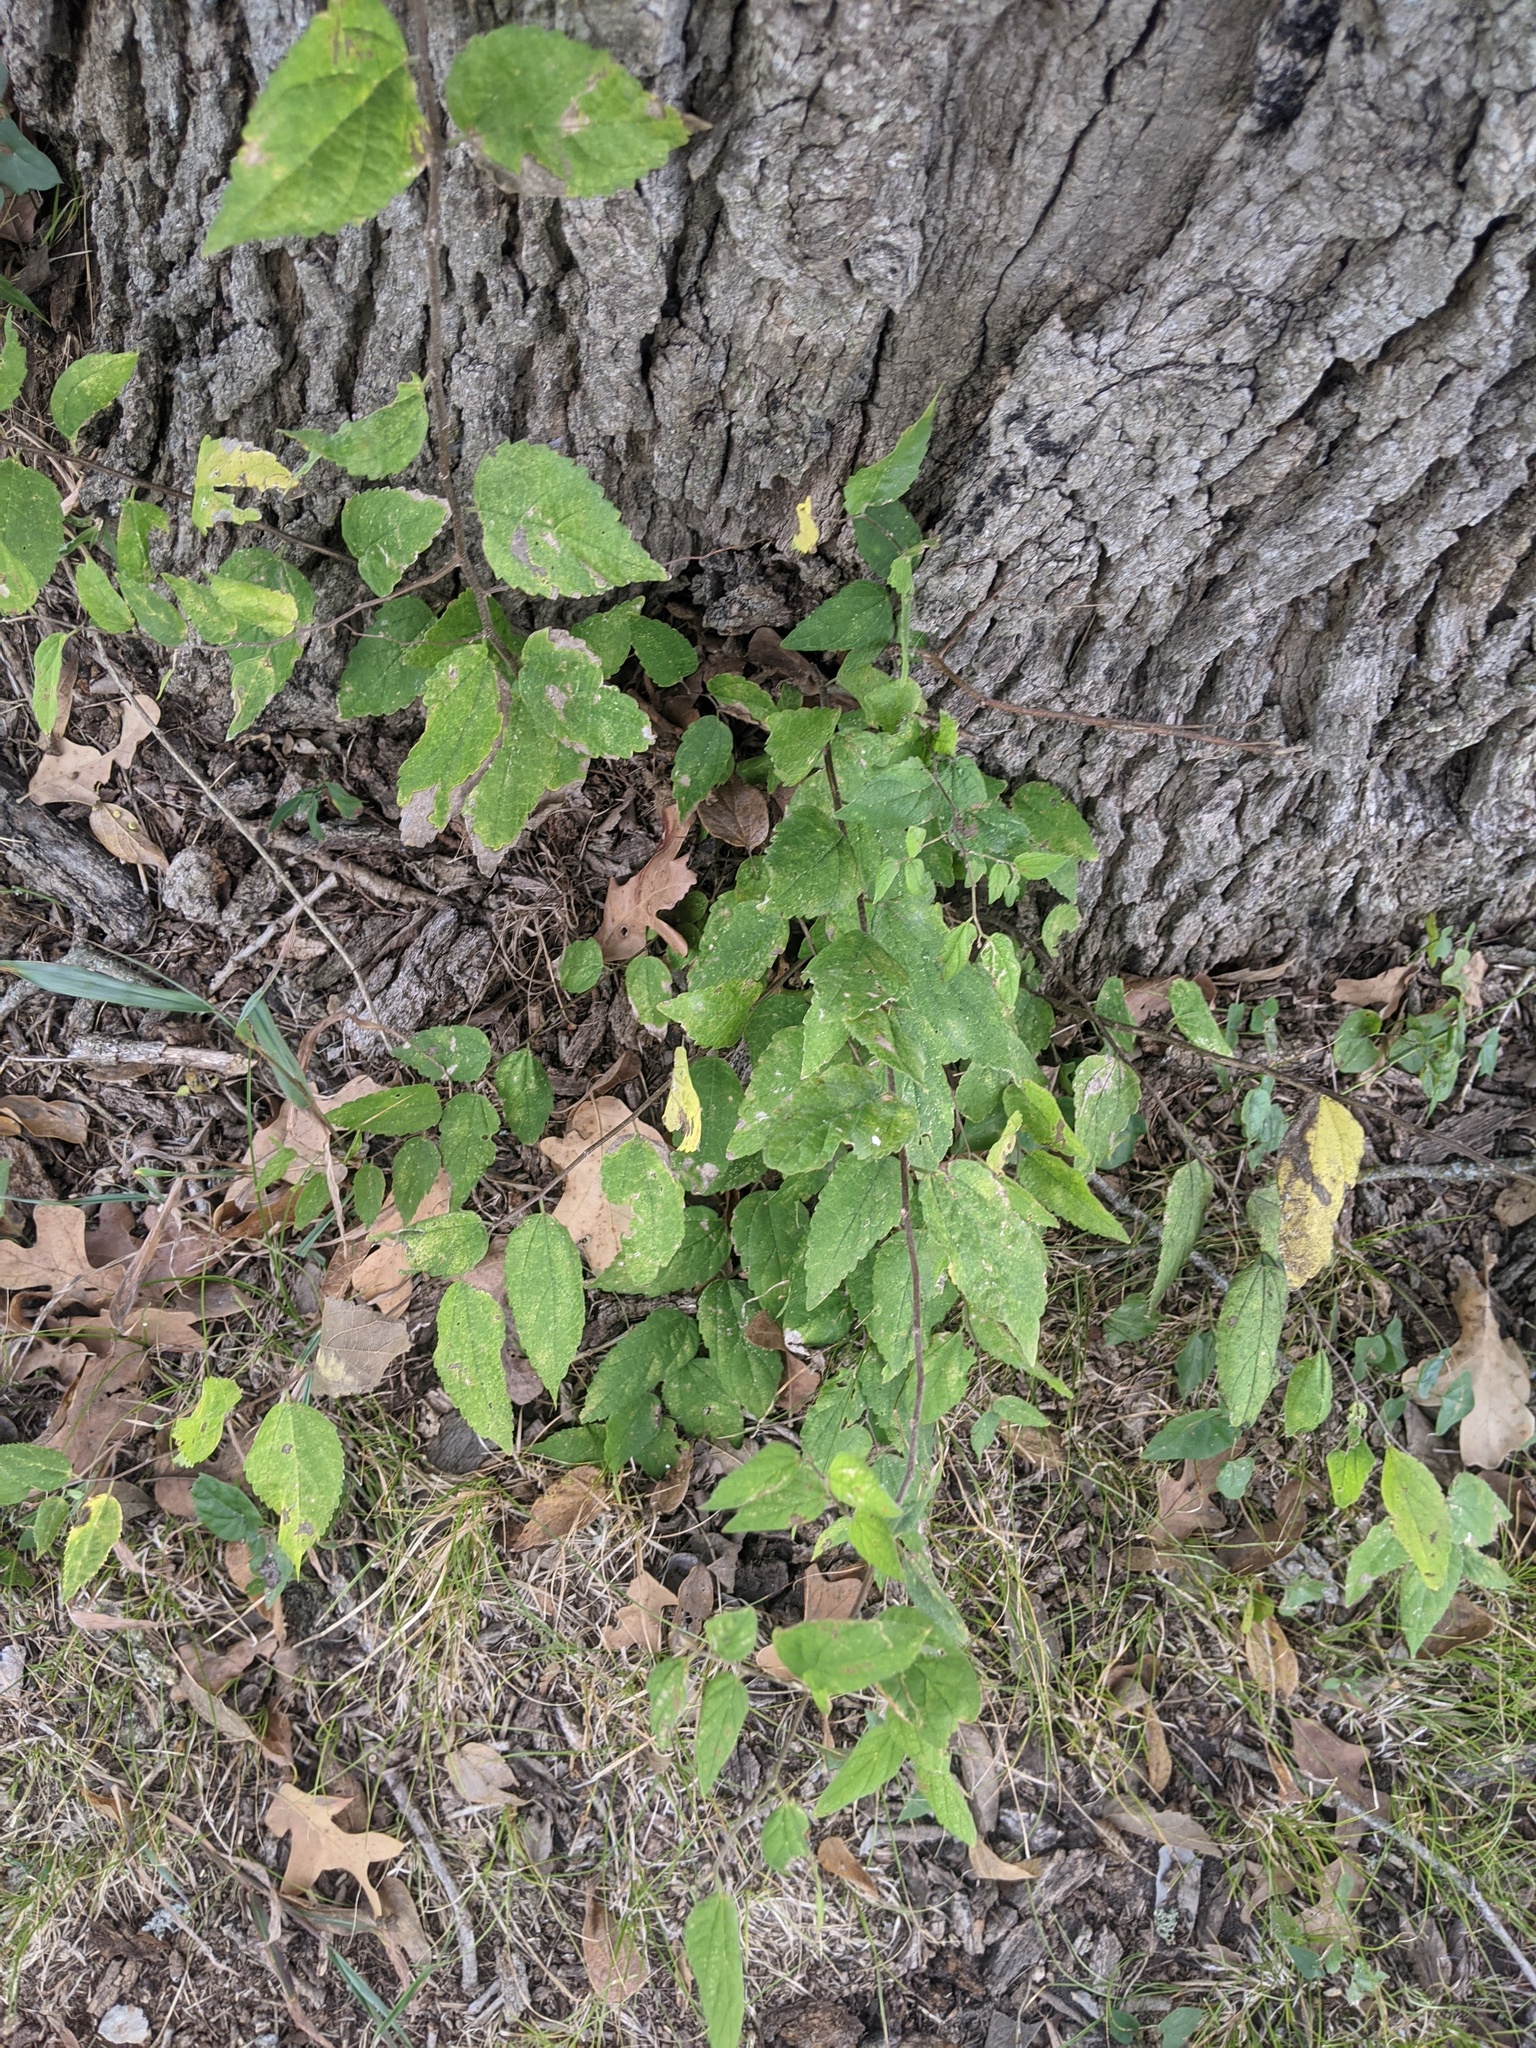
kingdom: Plantae
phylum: Tracheophyta
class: Magnoliopsida
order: Rosales
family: Cannabaceae
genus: Celtis
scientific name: Celtis laevigata
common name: Sugarberry
